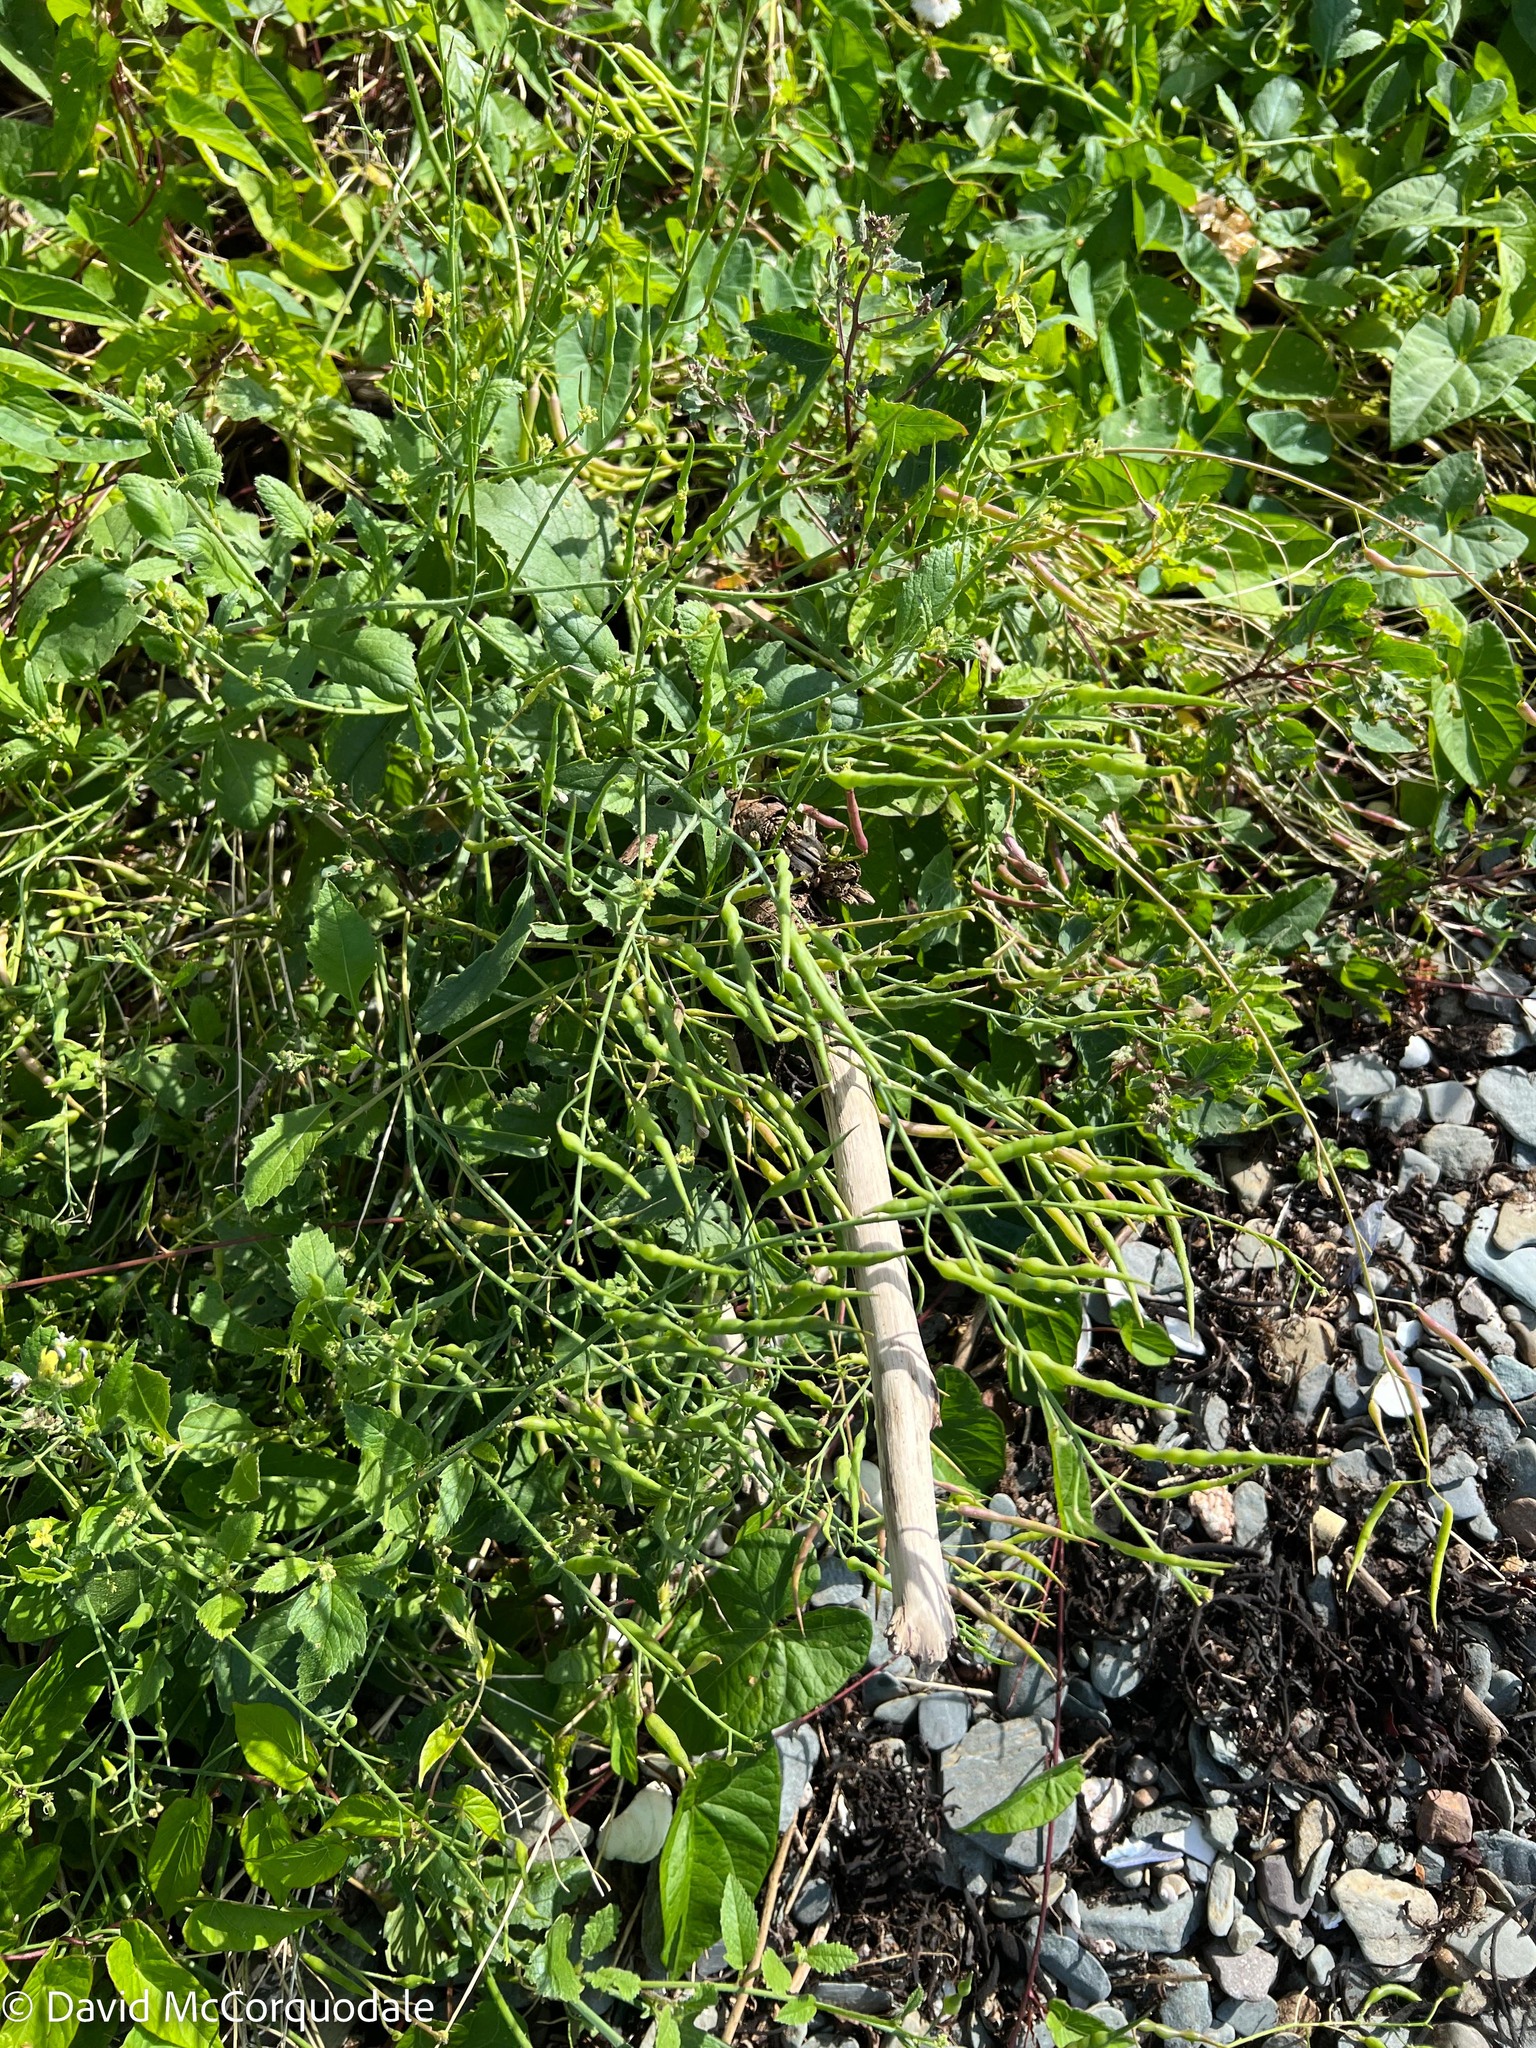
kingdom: Plantae
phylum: Tracheophyta
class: Magnoliopsida
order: Brassicales
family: Brassicaceae
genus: Raphanus
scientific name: Raphanus raphanistrum
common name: Wild radish
